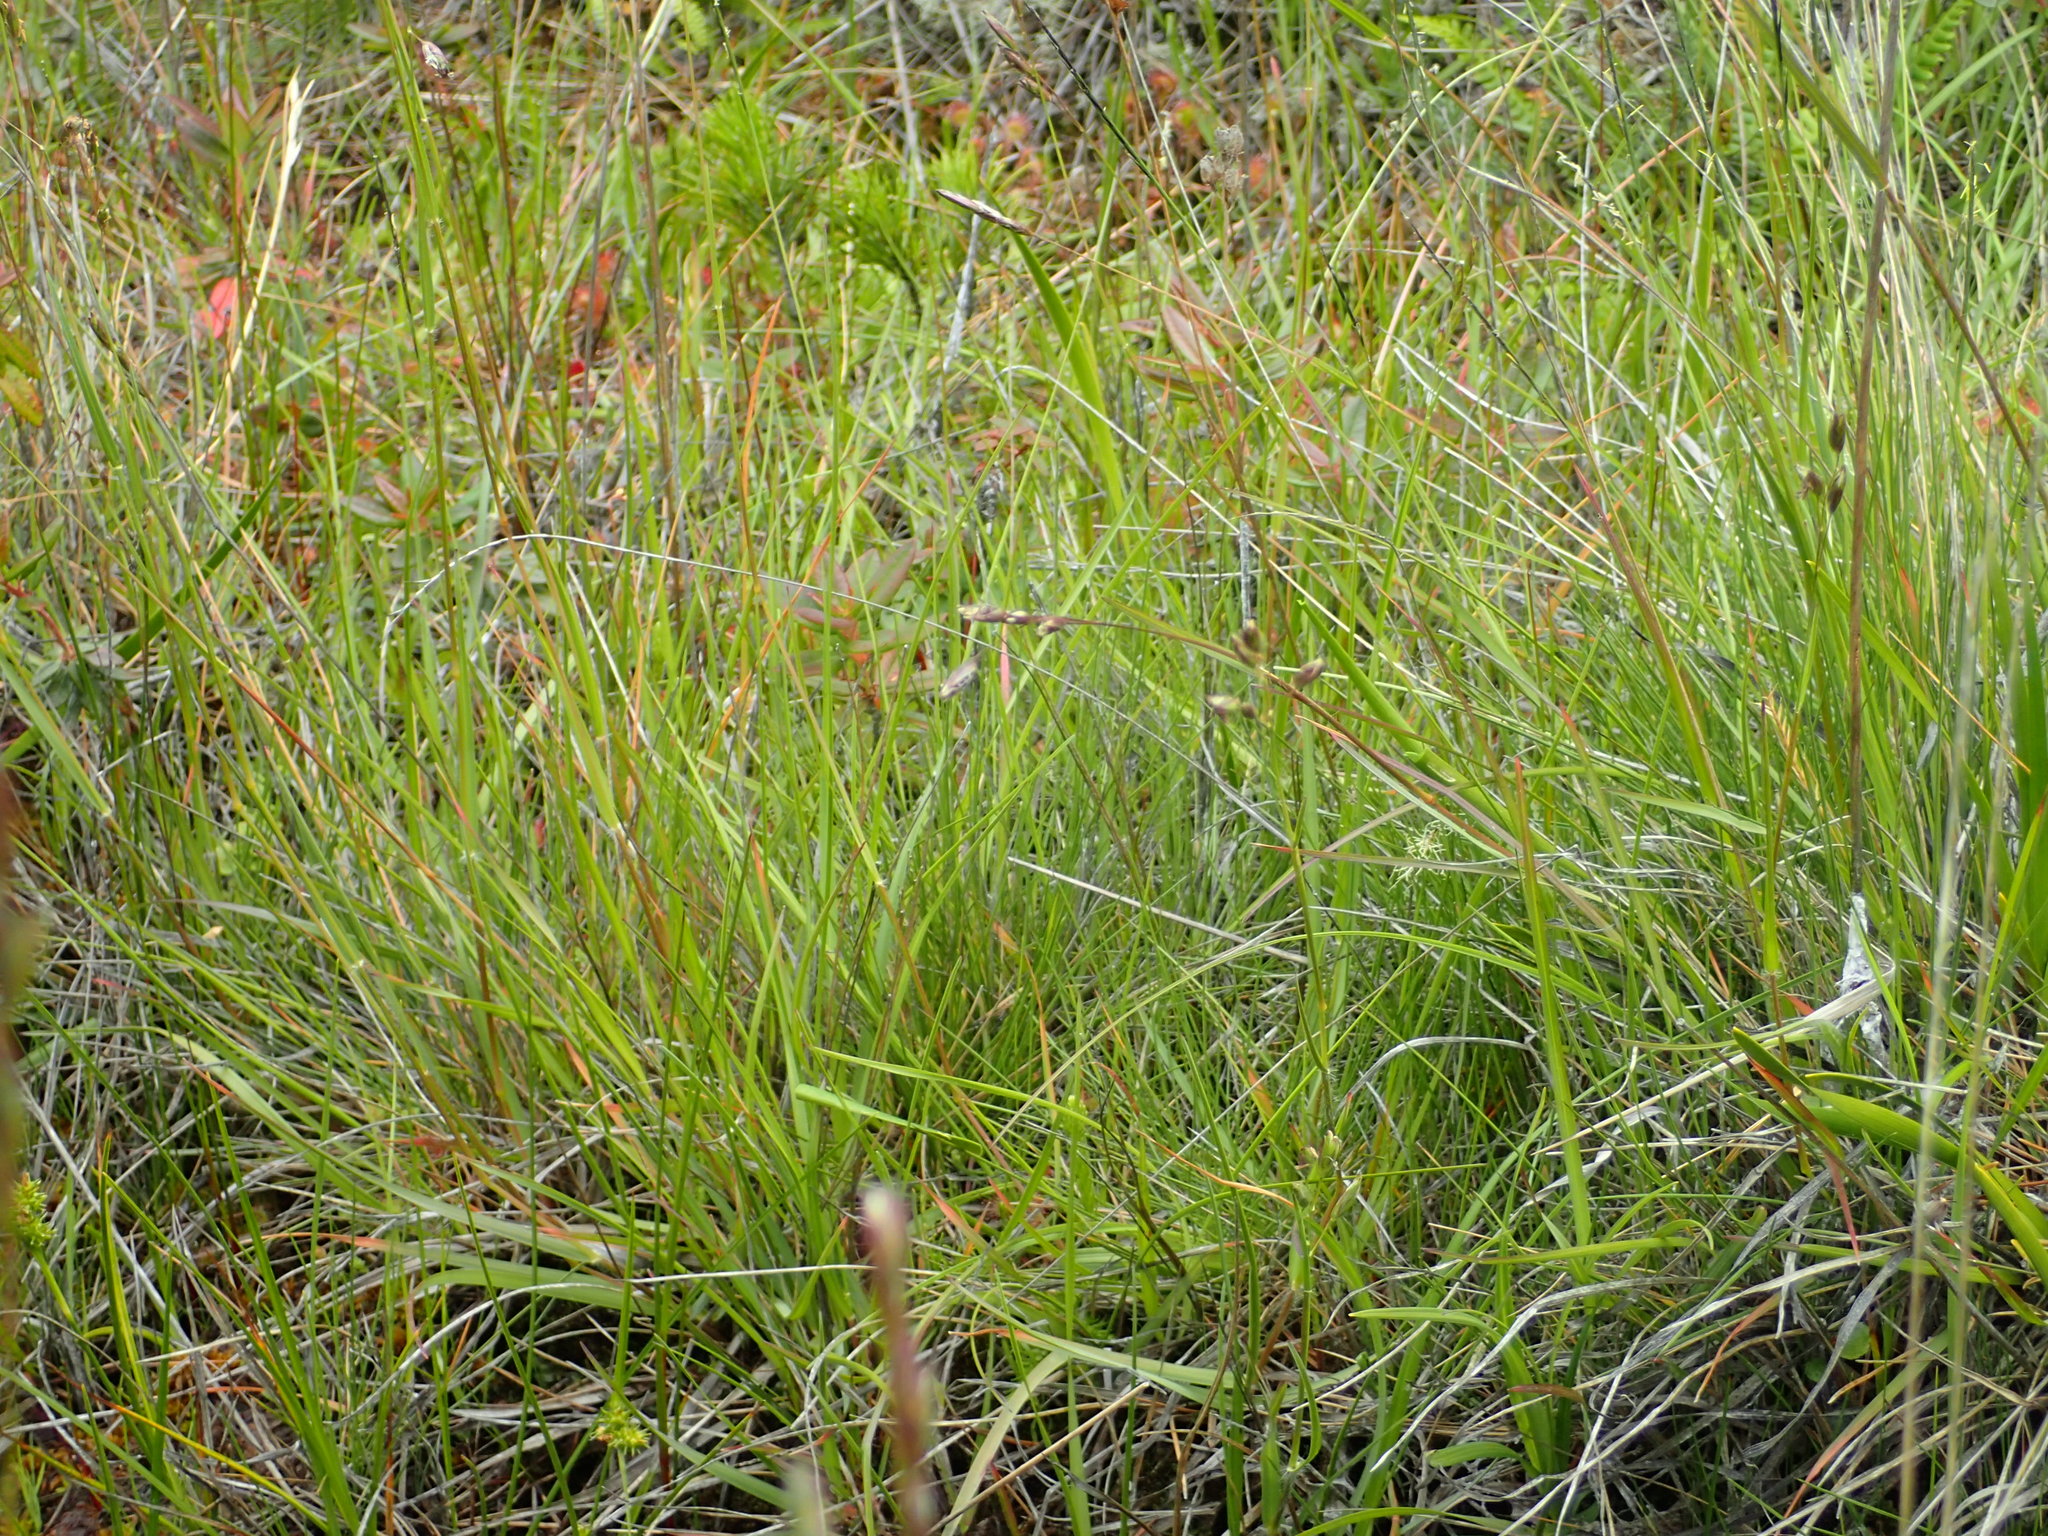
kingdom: Plantae
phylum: Tracheophyta
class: Liliopsida
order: Poales
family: Poaceae
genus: Nardus
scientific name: Nardus stricta
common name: Mat-grass
